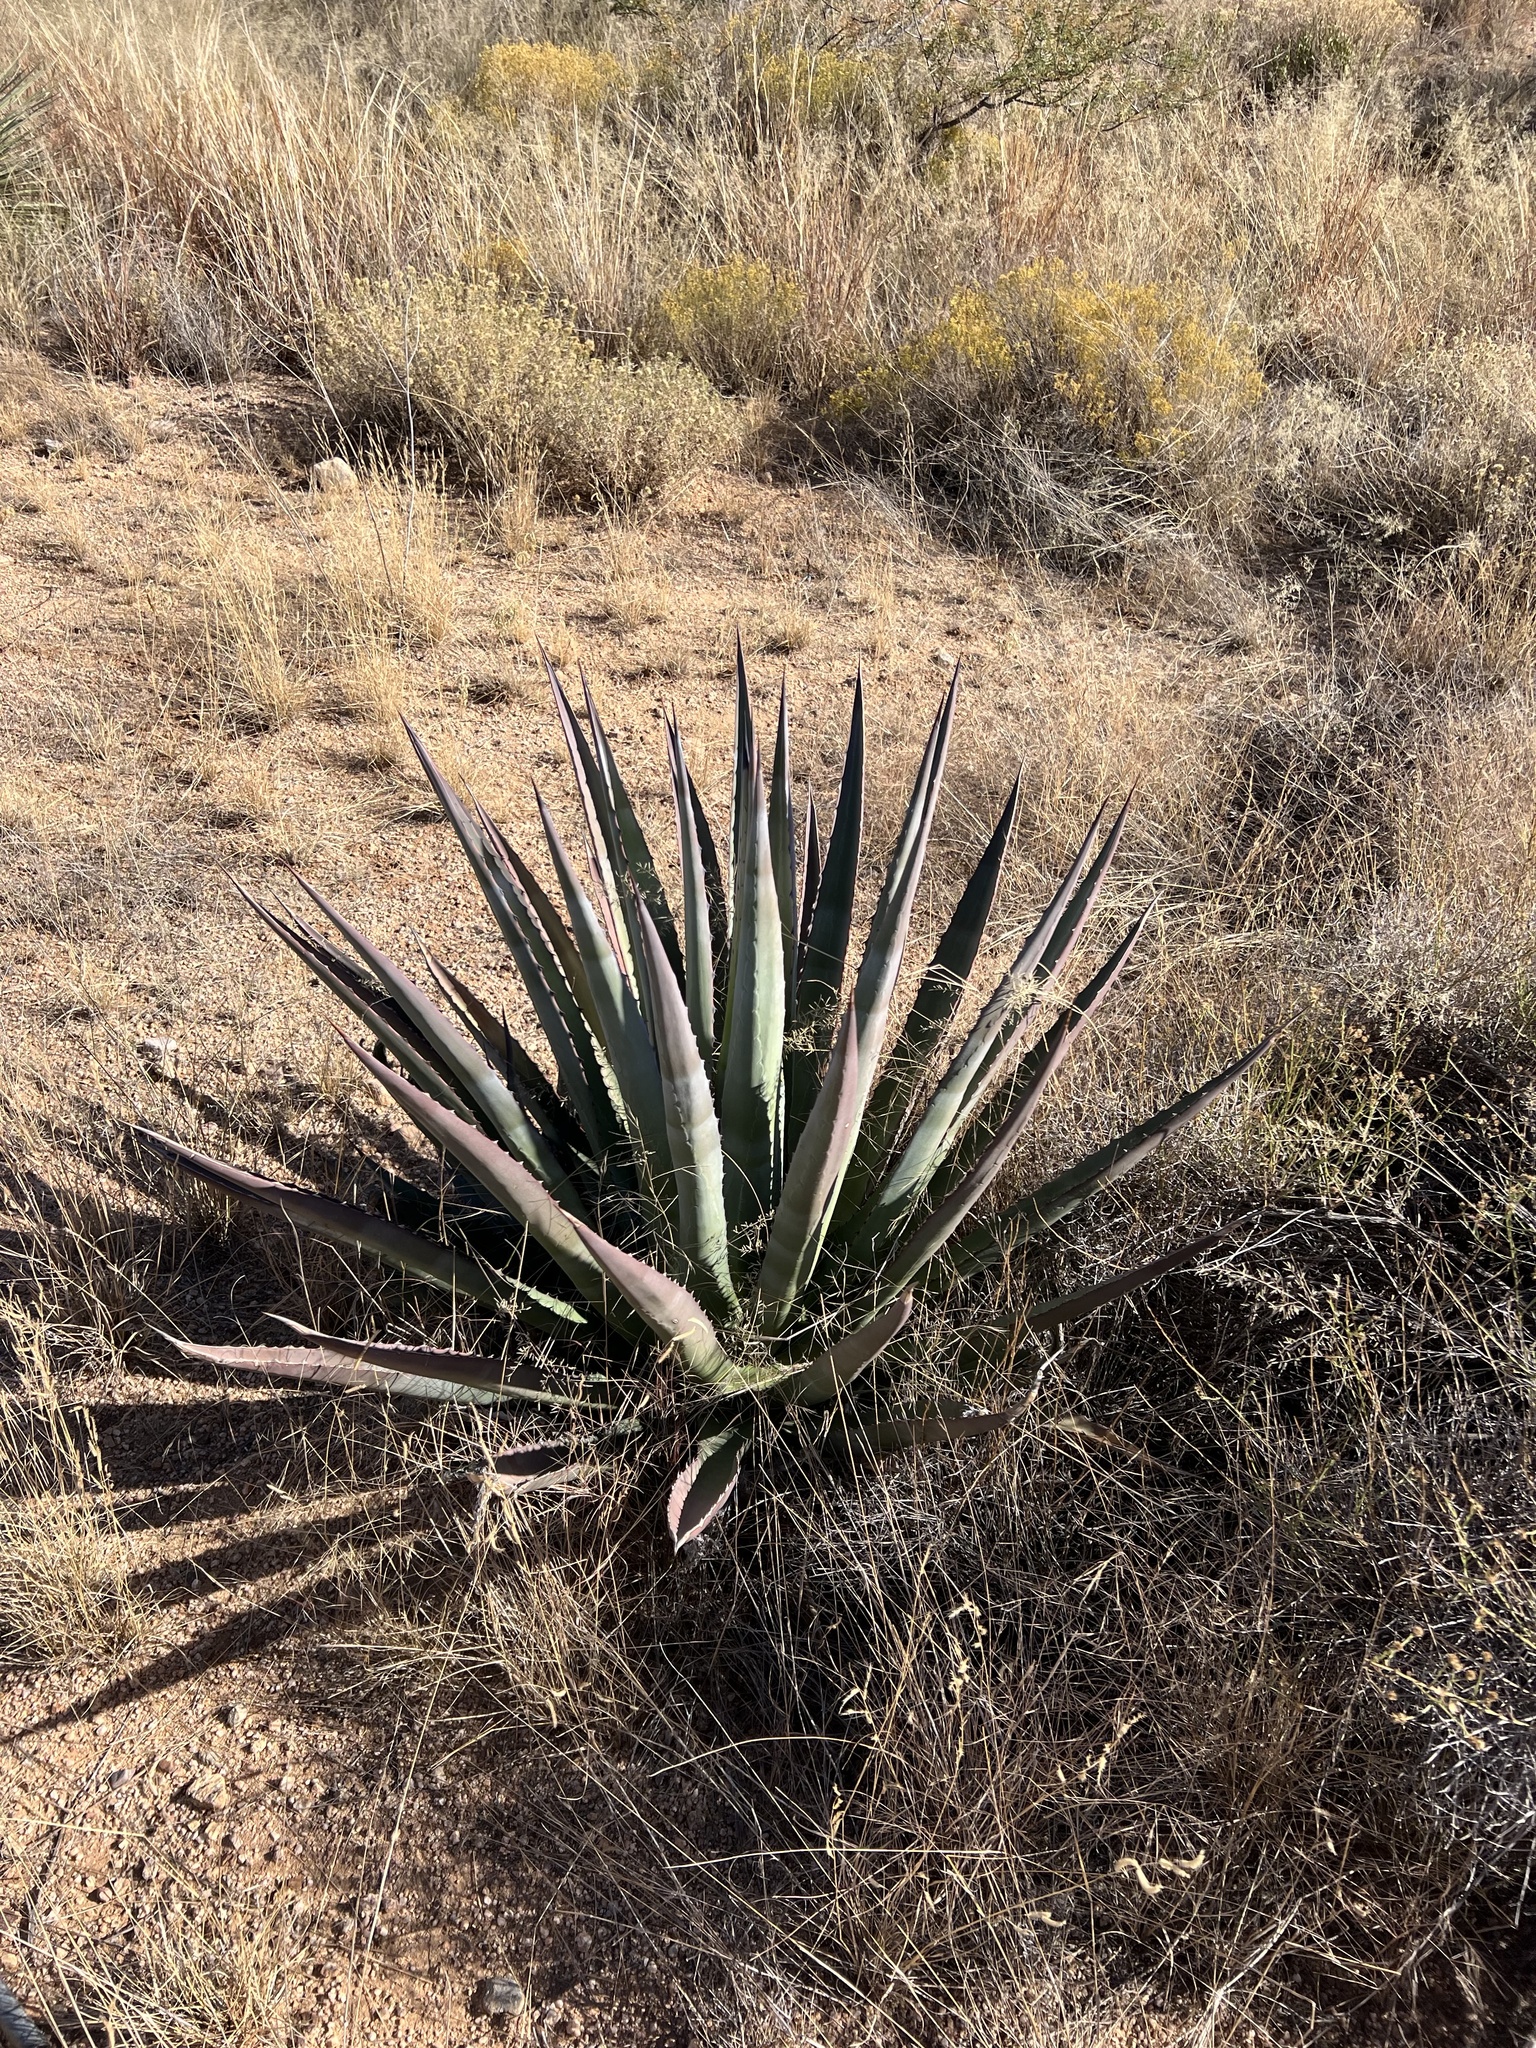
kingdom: Plantae
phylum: Tracheophyta
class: Liliopsida
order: Asparagales
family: Asparagaceae
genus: Agave
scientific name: Agave palmeri
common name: Palmer agave
